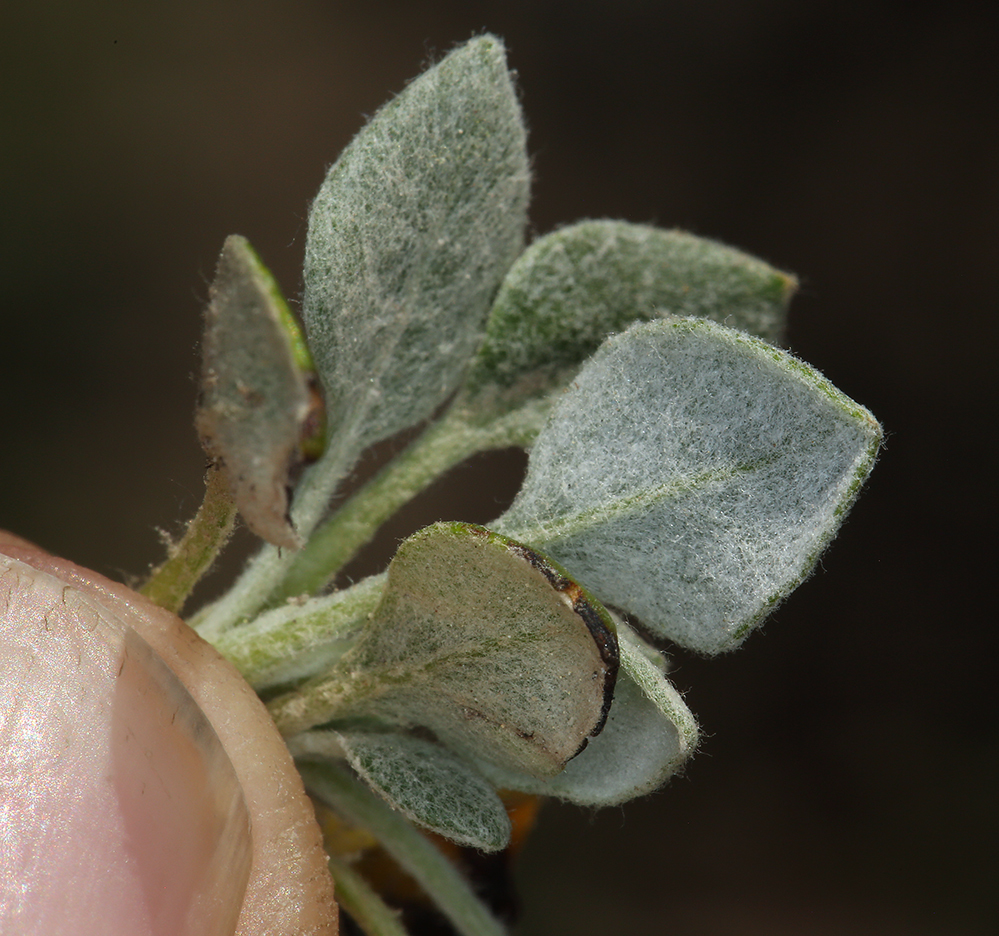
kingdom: Plantae
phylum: Tracheophyta
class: Magnoliopsida
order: Caryophyllales
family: Polygonaceae
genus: Eriogonum
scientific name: Eriogonum marifolium
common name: Marum-leaf wild buckwheat
